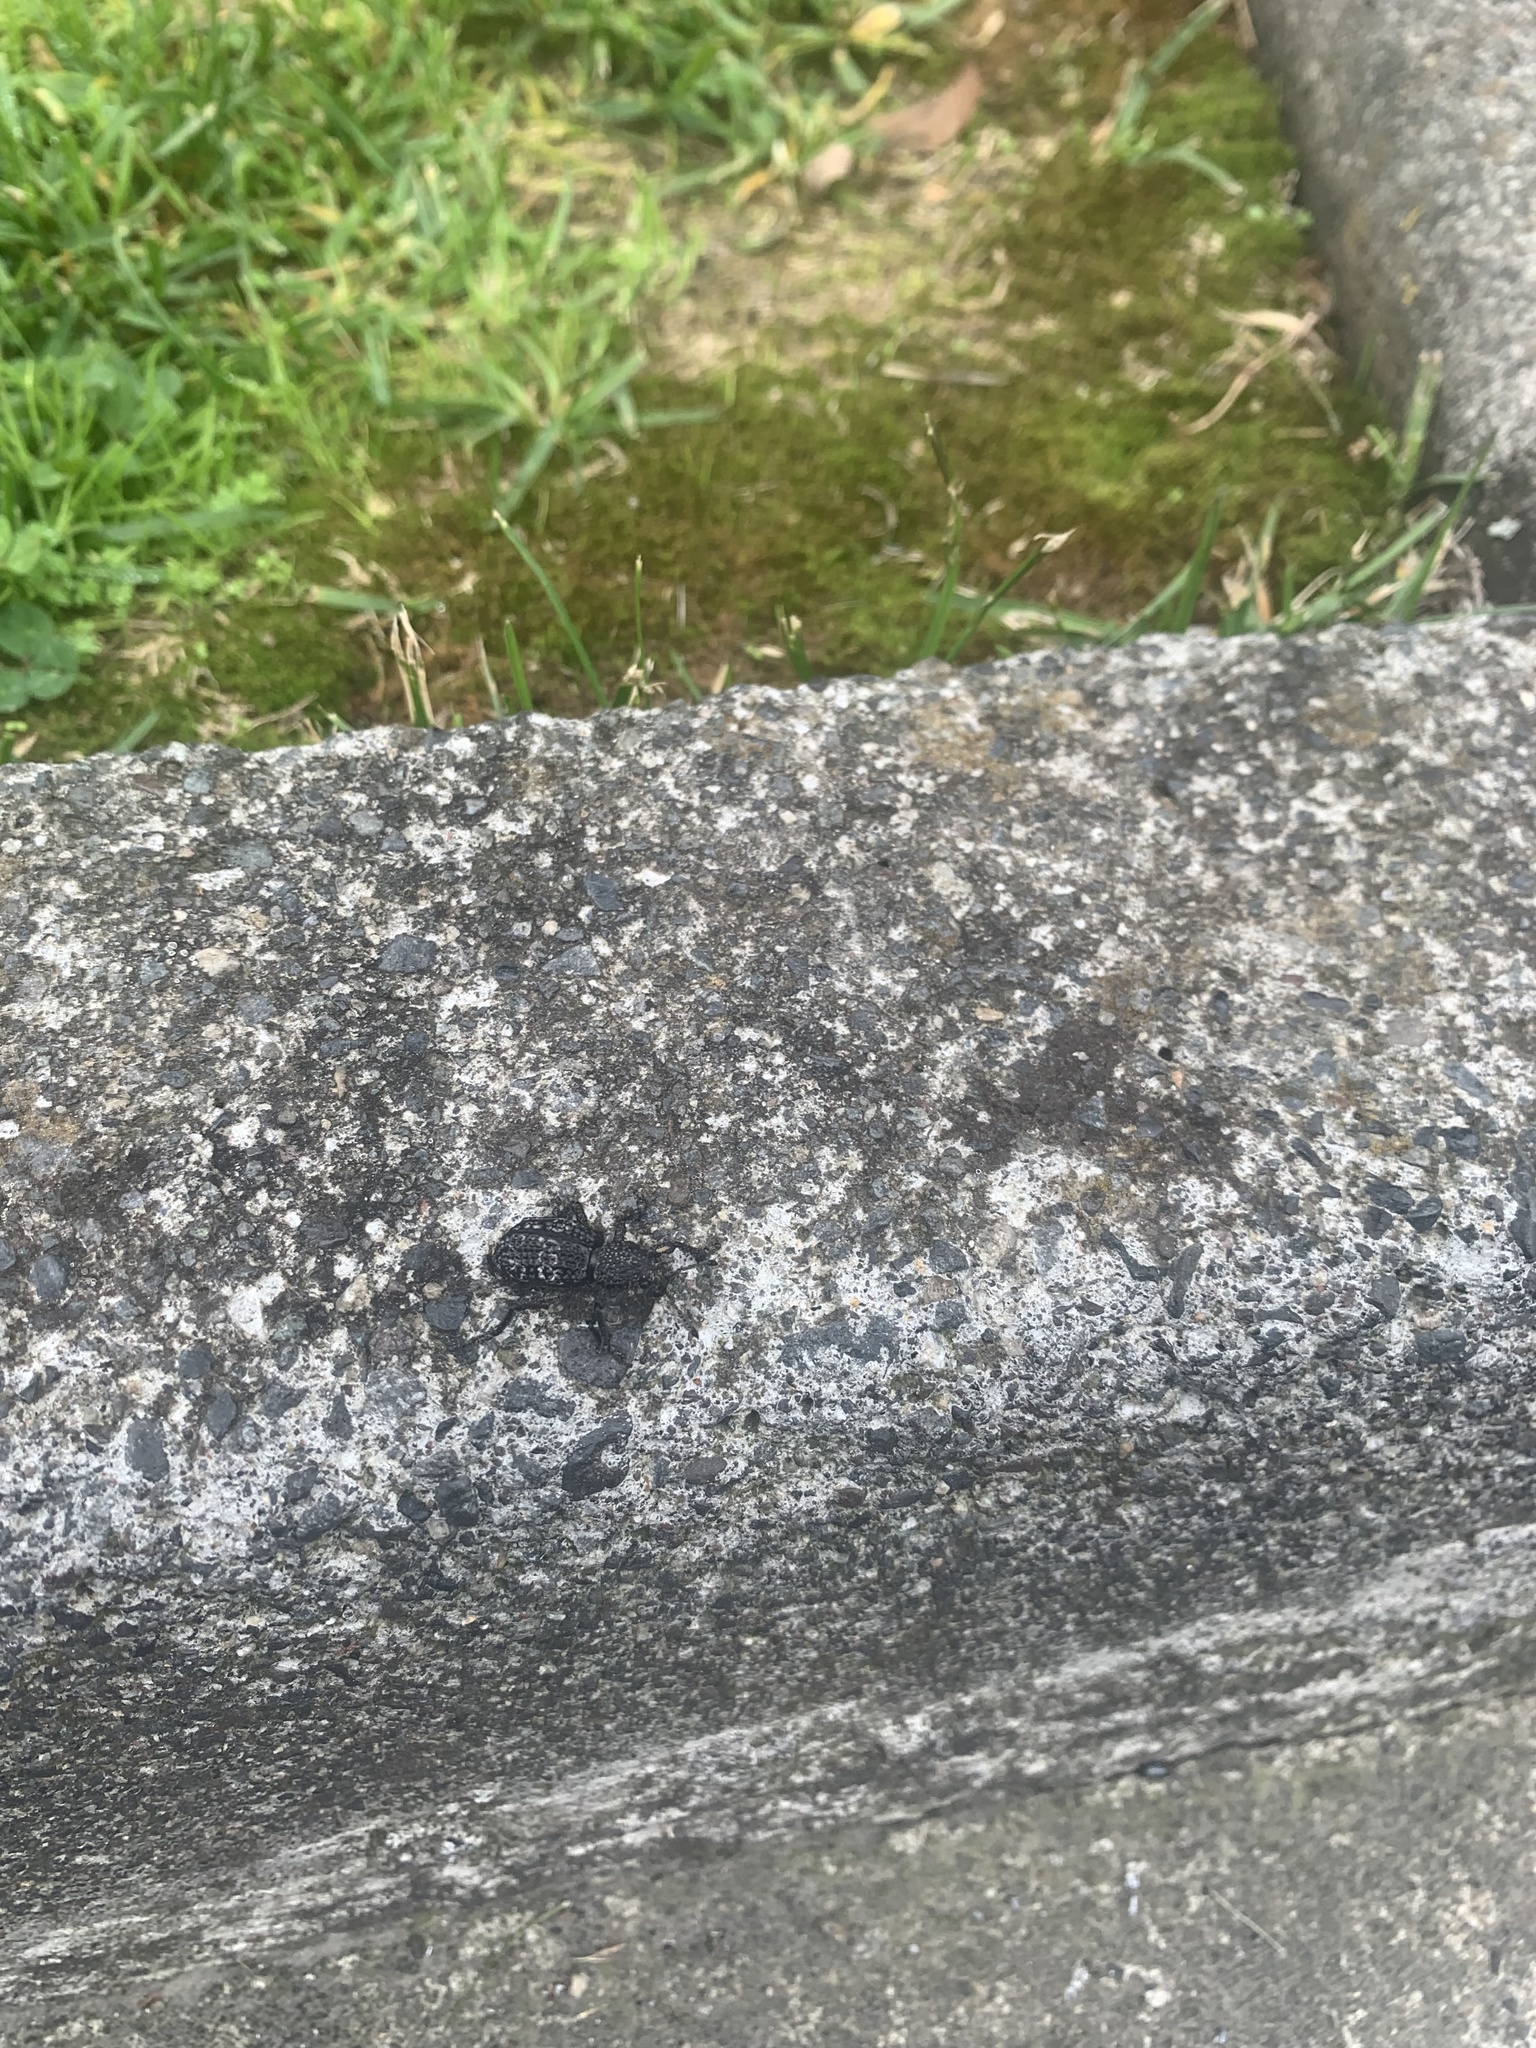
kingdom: Animalia
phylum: Arthropoda
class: Insecta
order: Coleoptera
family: Curculionidae
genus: Aegorhinus
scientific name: Aegorhinus superciliosus
